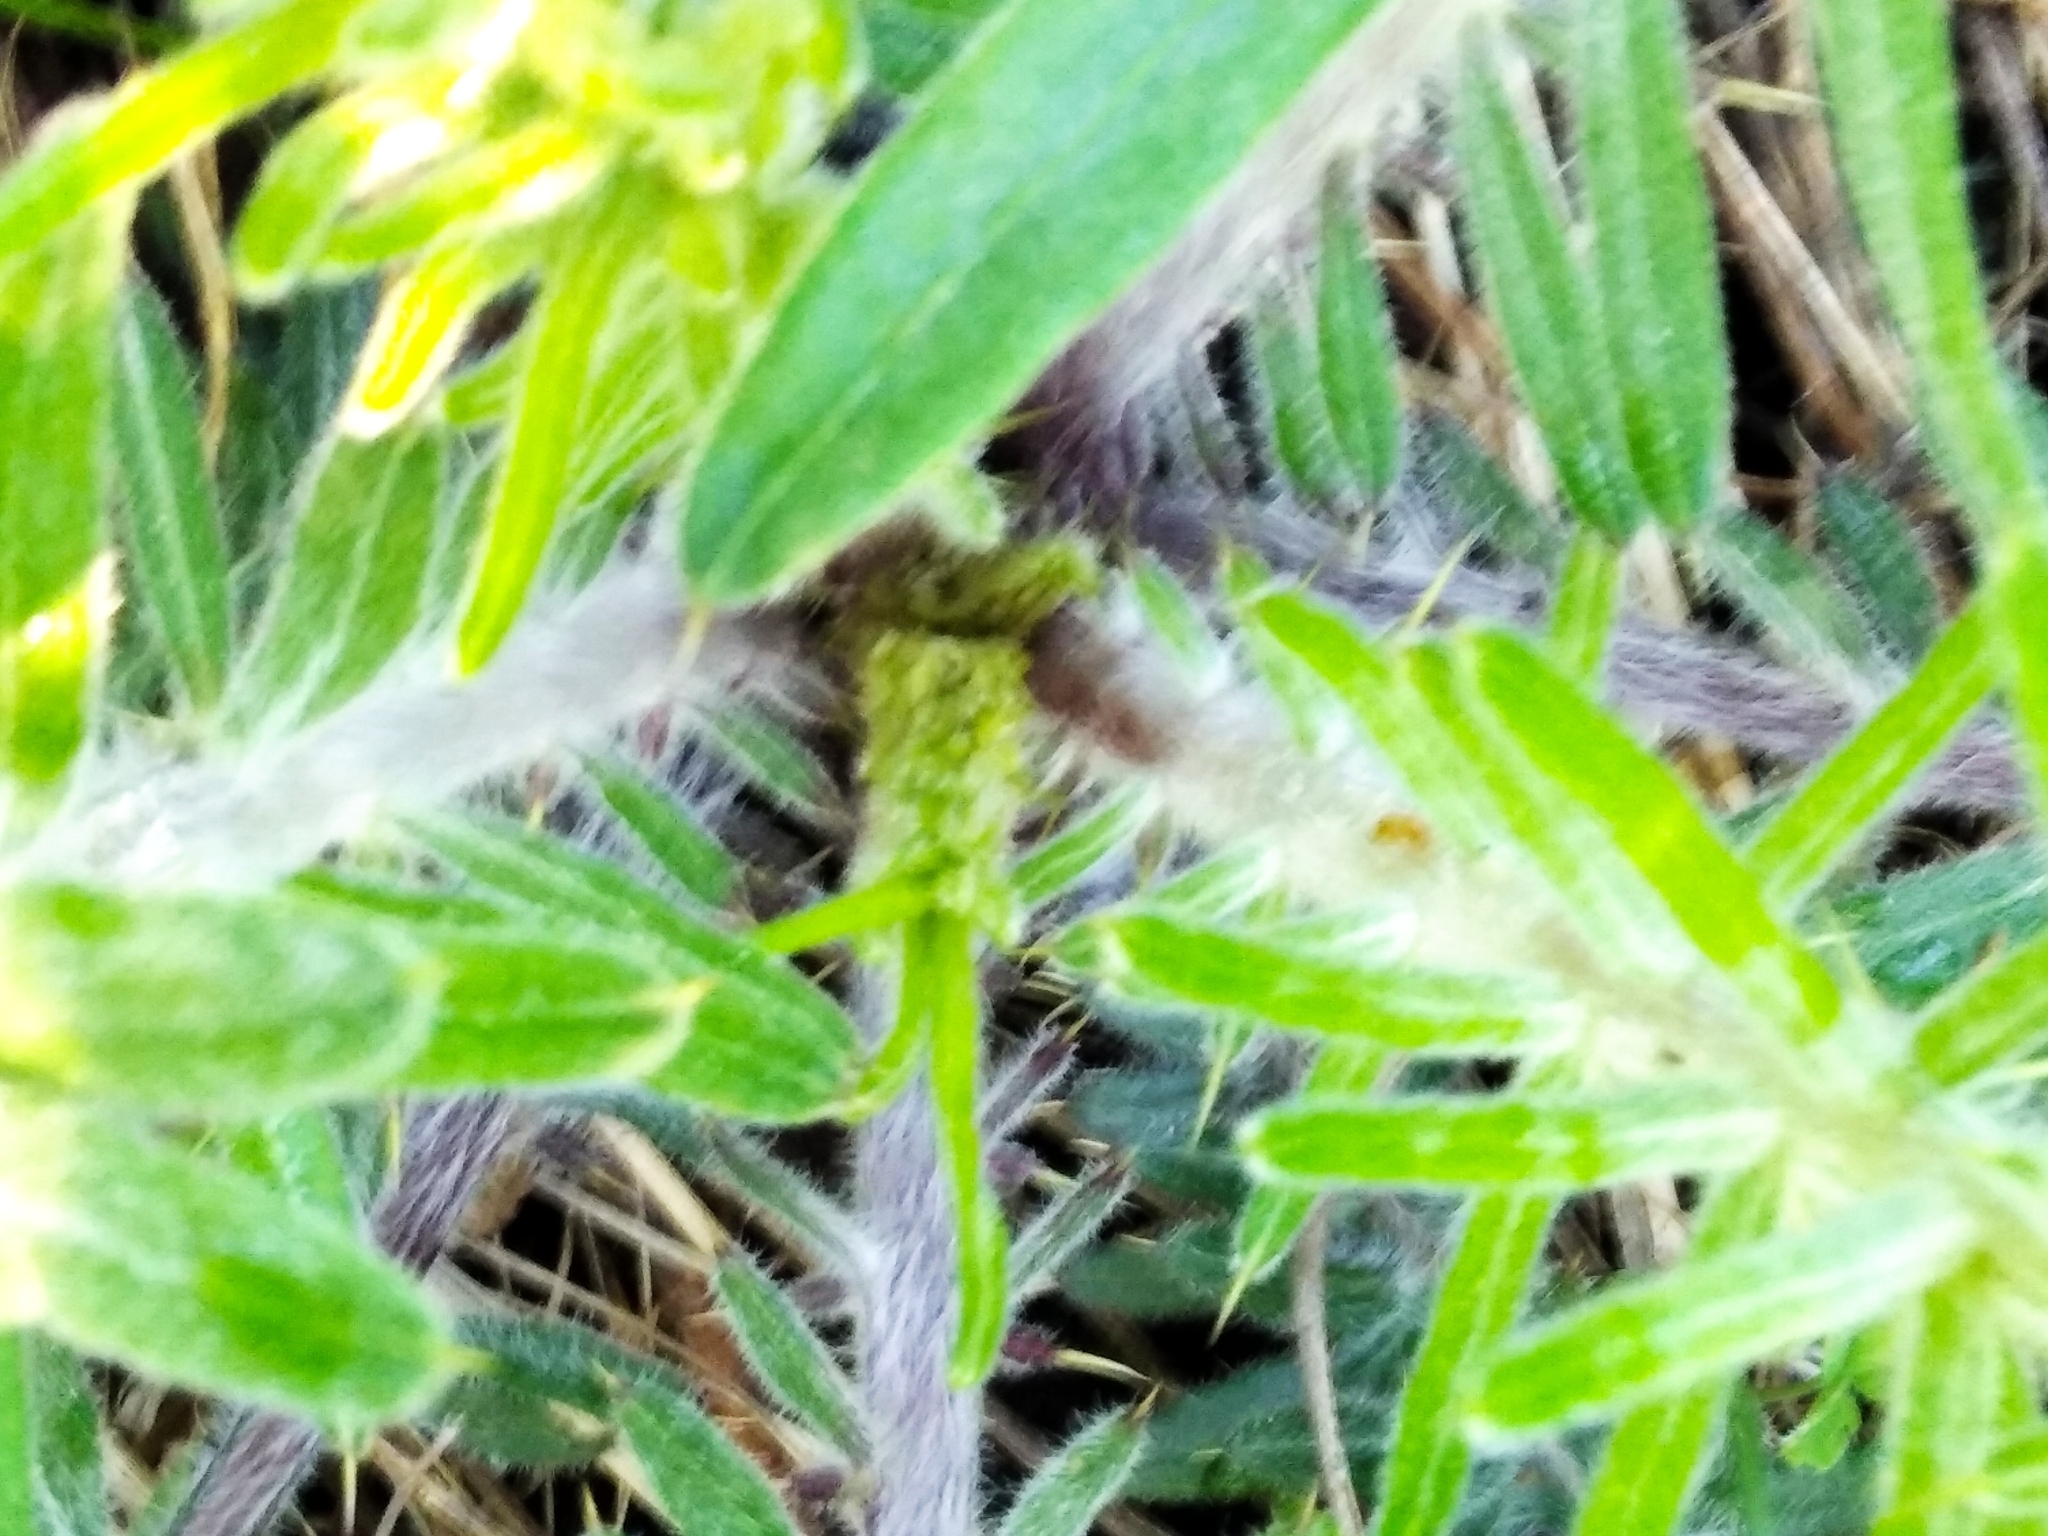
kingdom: Plantae
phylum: Tracheophyta
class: Magnoliopsida
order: Asterales
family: Asteraceae
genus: Lophiolepis
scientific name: Lophiolepis decussata
